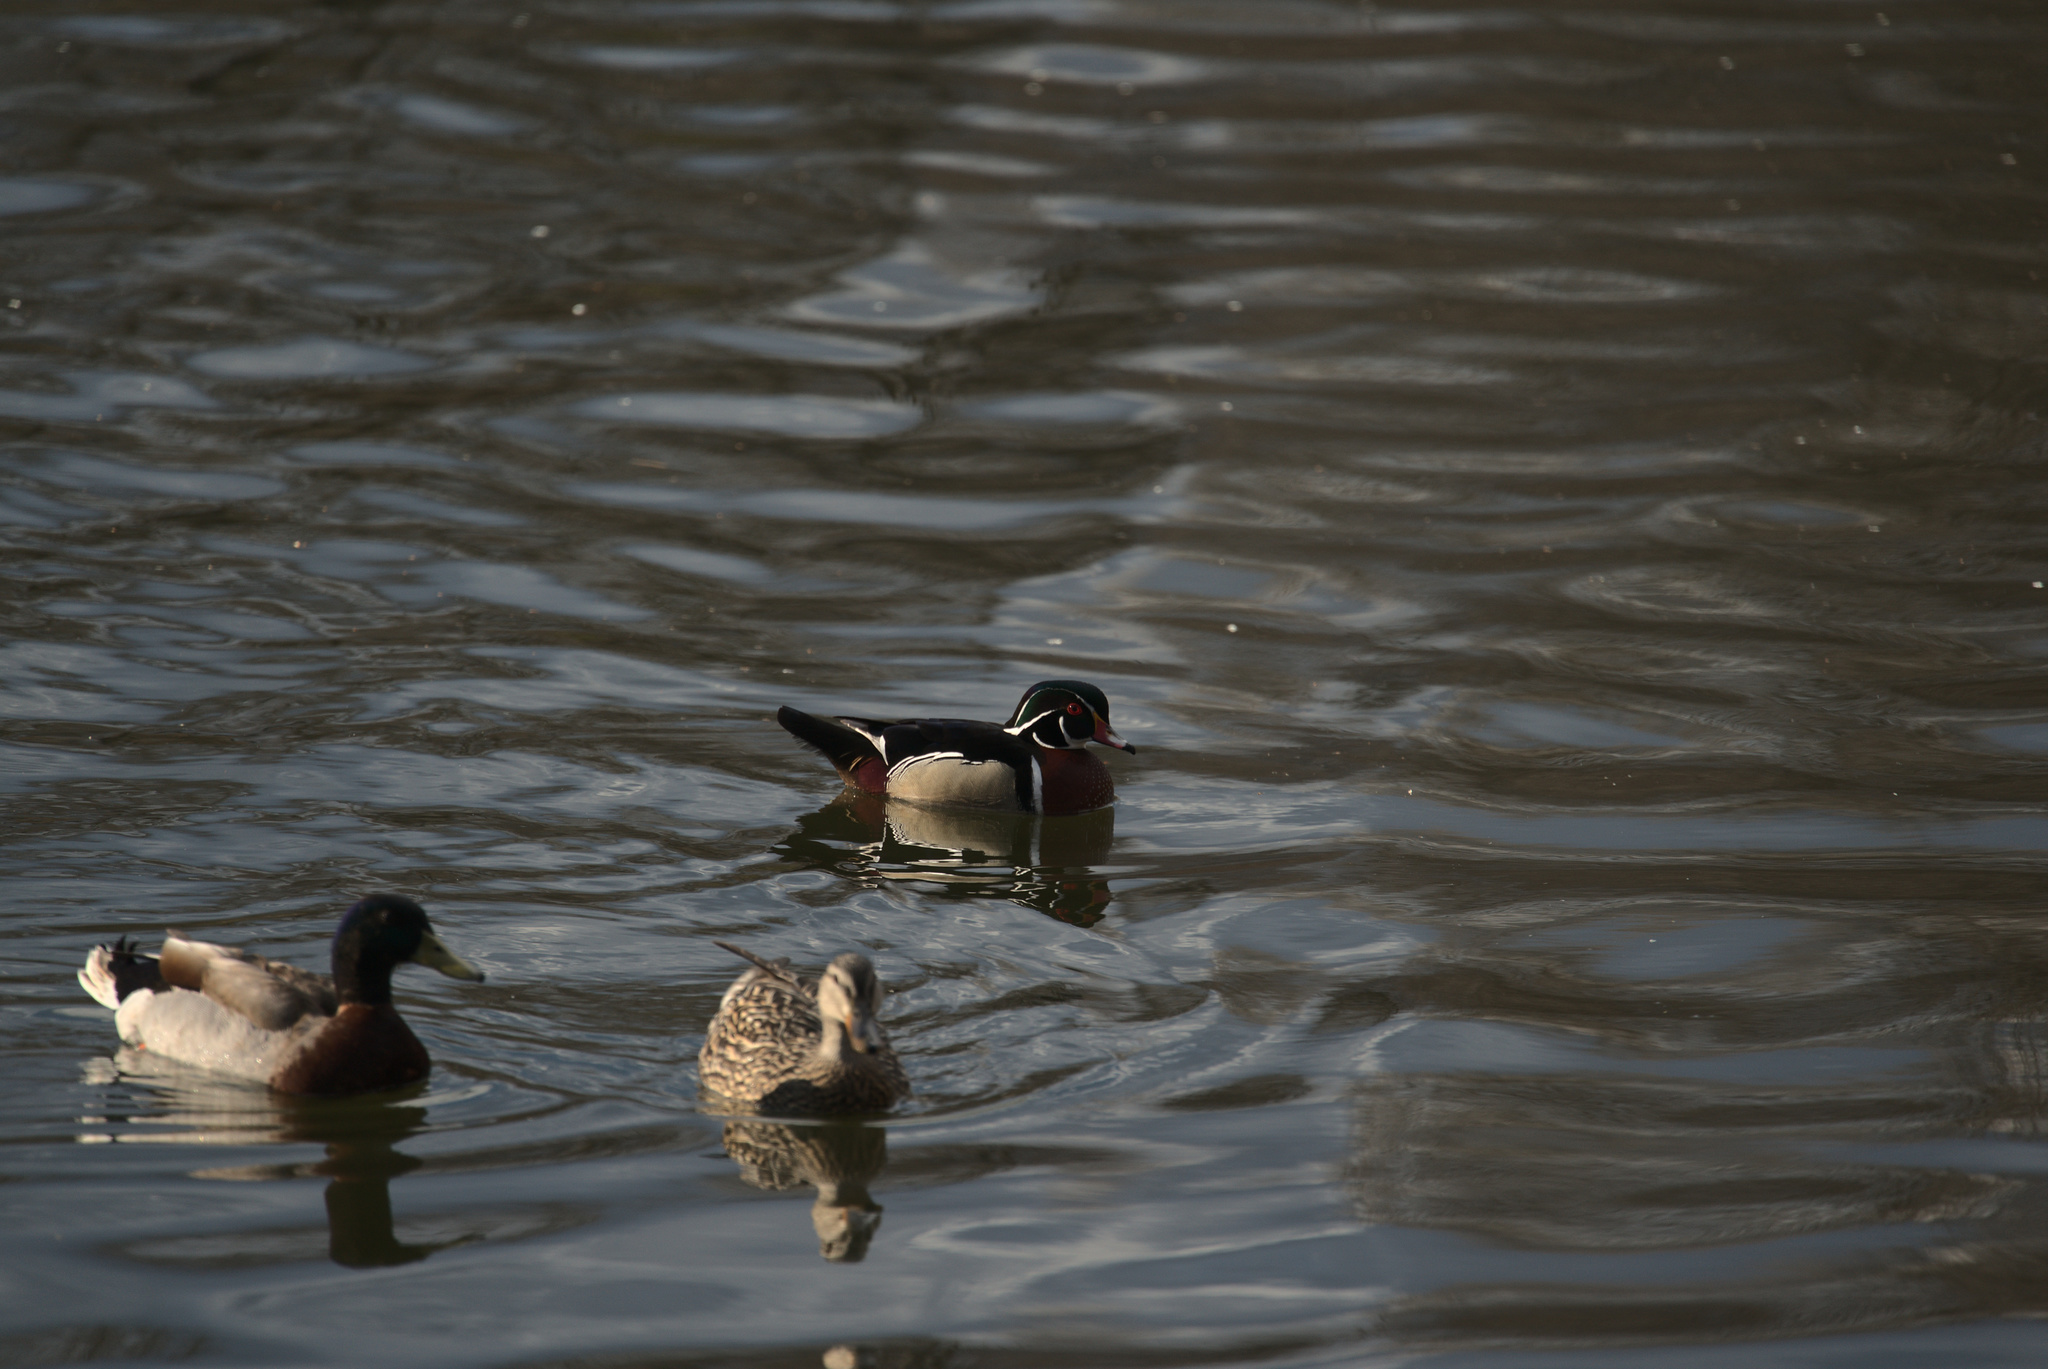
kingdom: Animalia
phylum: Chordata
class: Aves
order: Anseriformes
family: Anatidae
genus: Aix
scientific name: Aix sponsa
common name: Wood duck
